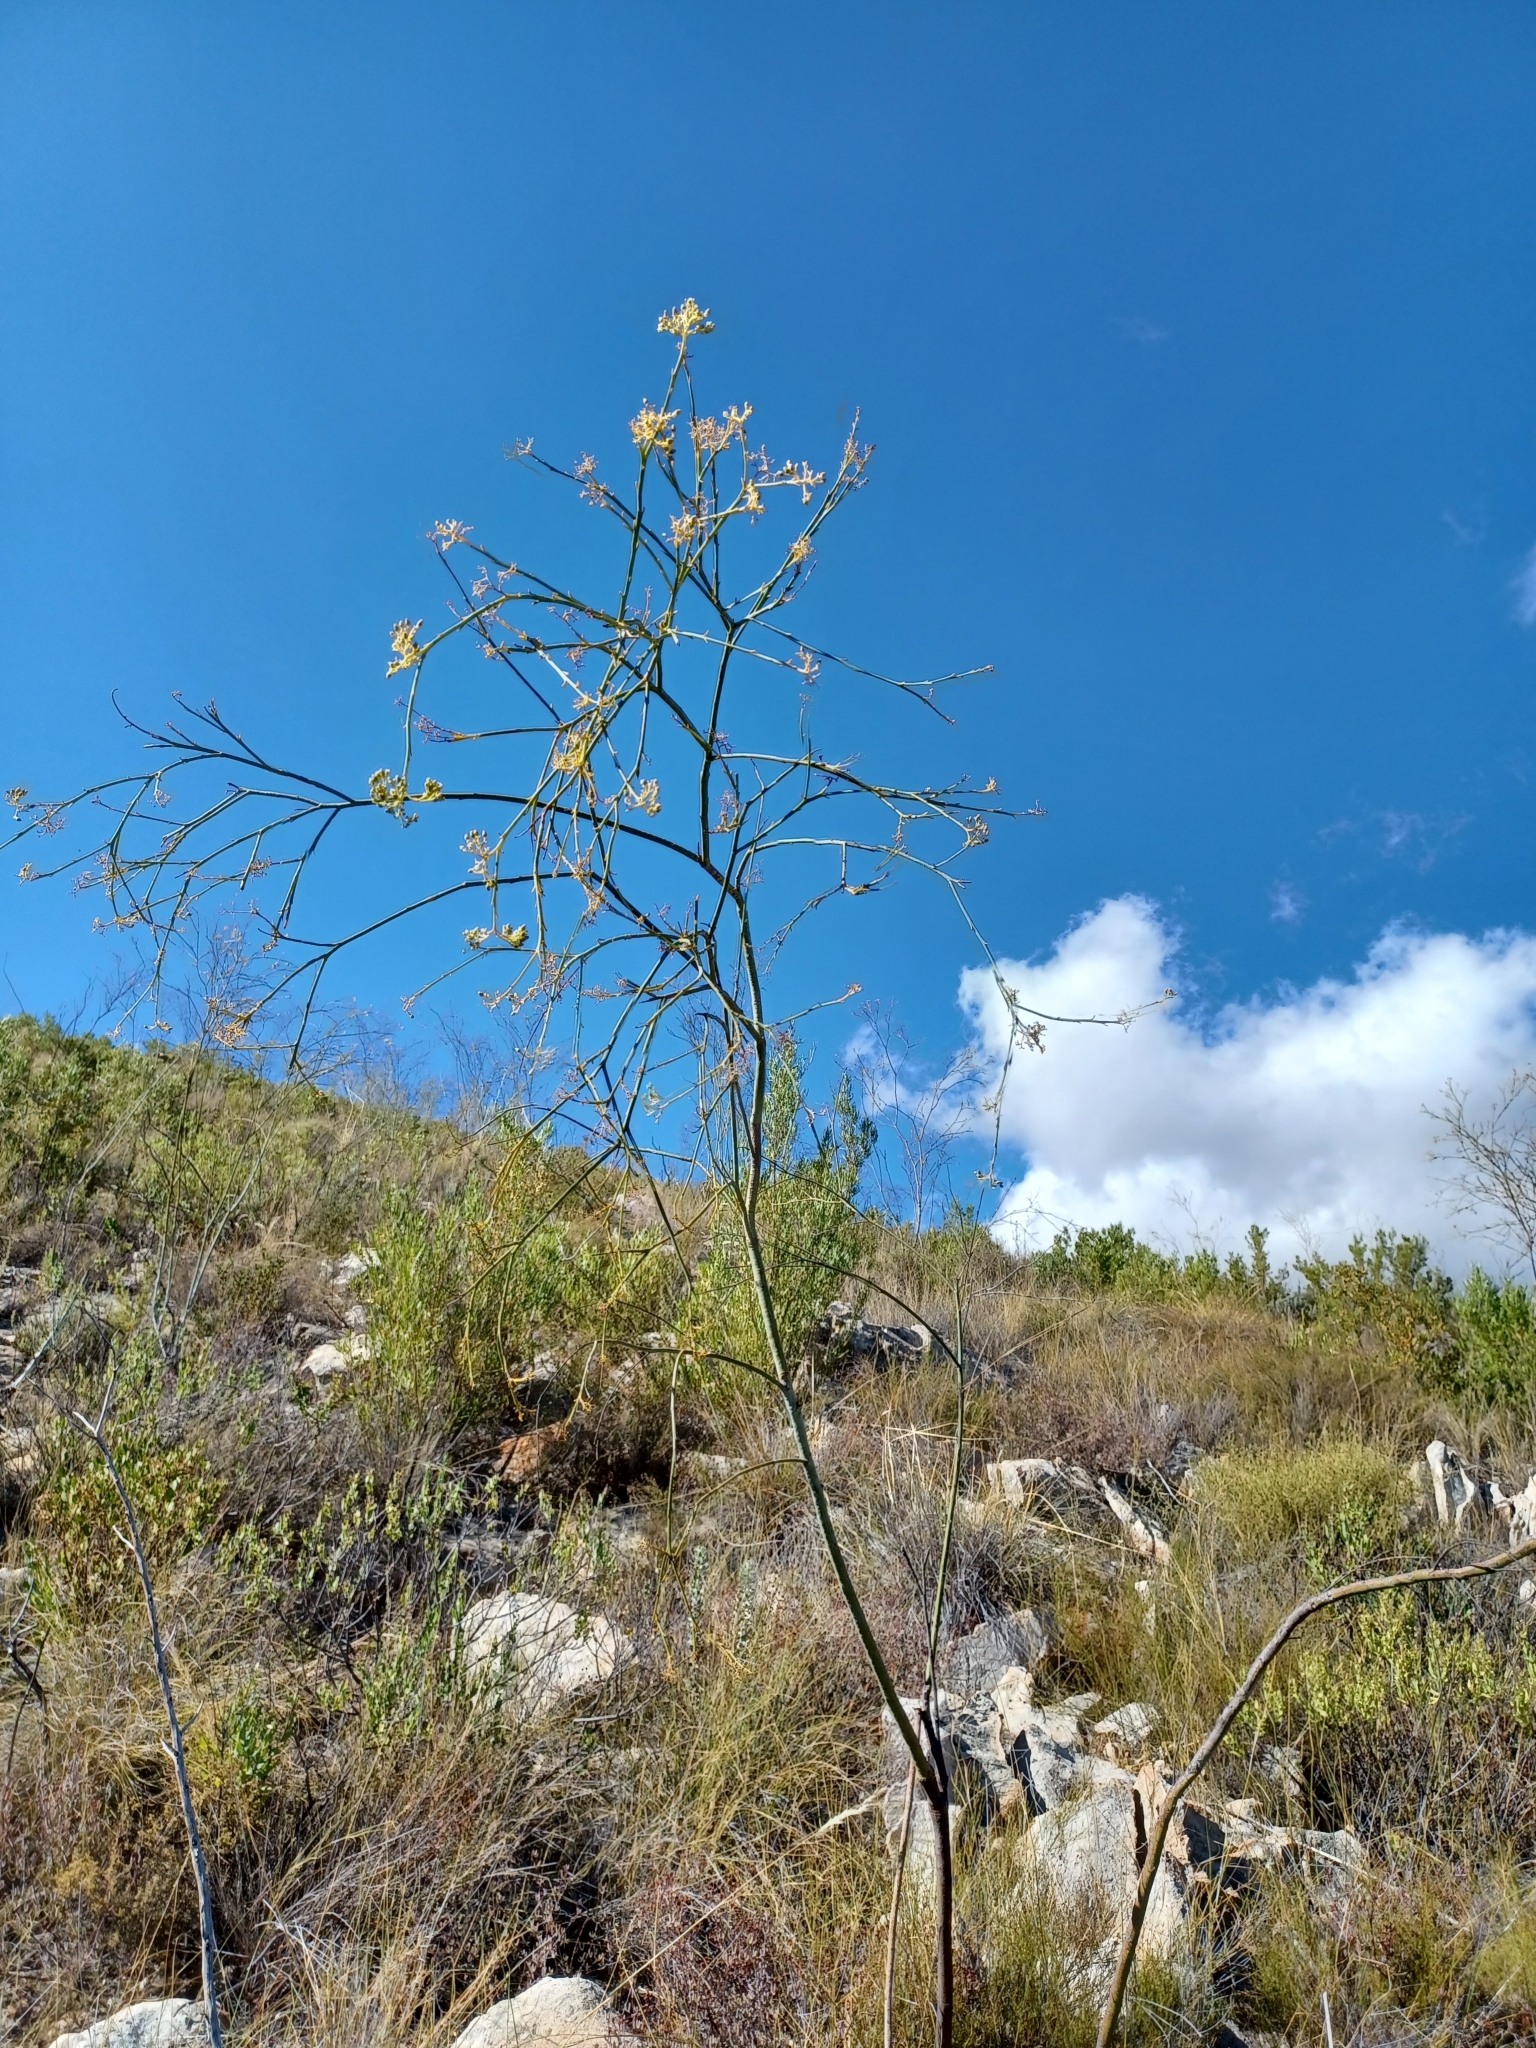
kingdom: Plantae
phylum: Tracheophyta
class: Magnoliopsida
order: Santalales
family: Thesiaceae
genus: Thesium
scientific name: Thesium strictum
